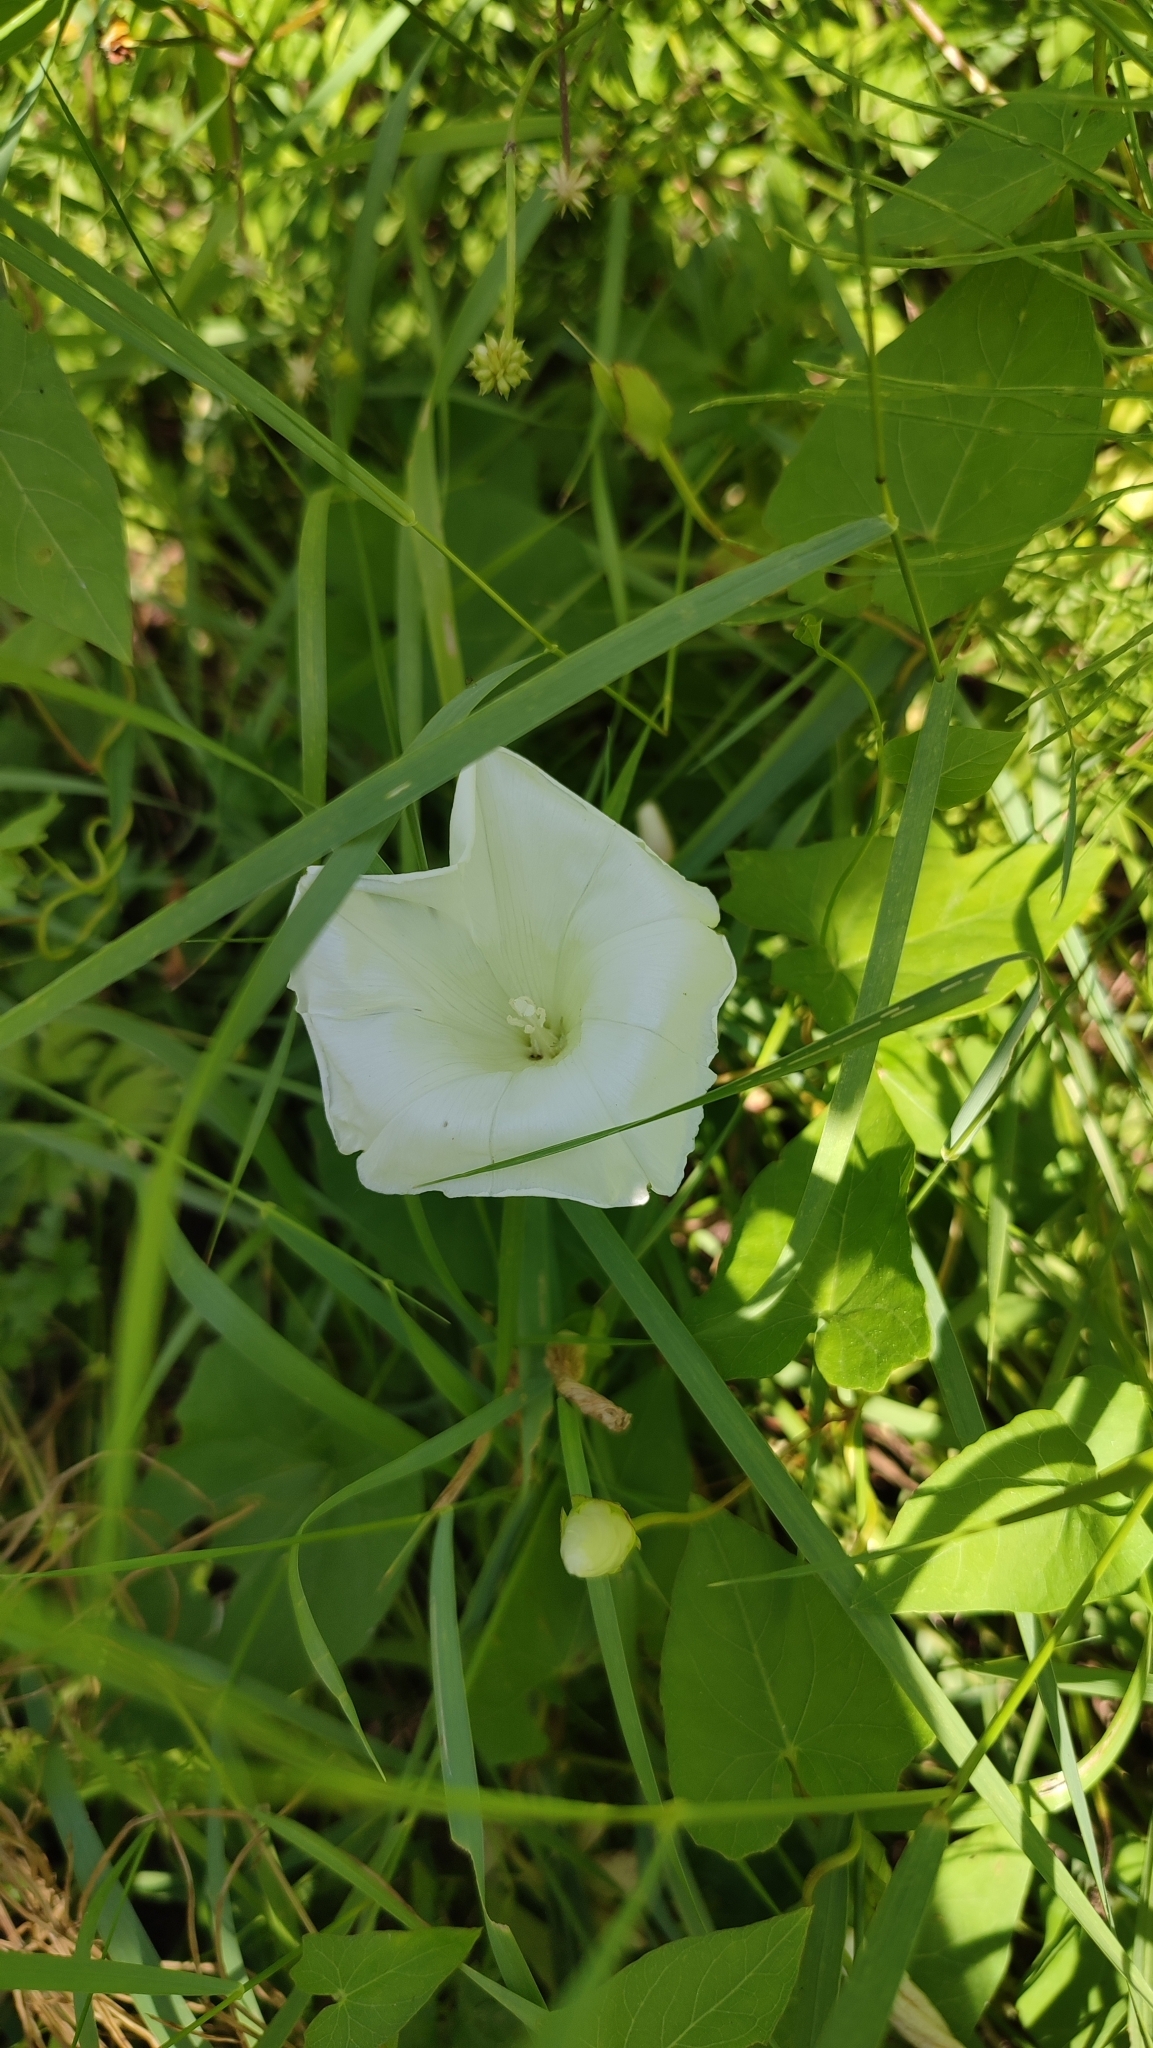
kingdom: Plantae
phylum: Tracheophyta
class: Magnoliopsida
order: Solanales
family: Convolvulaceae
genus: Calystegia
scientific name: Calystegia sepium
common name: Hedge bindweed
